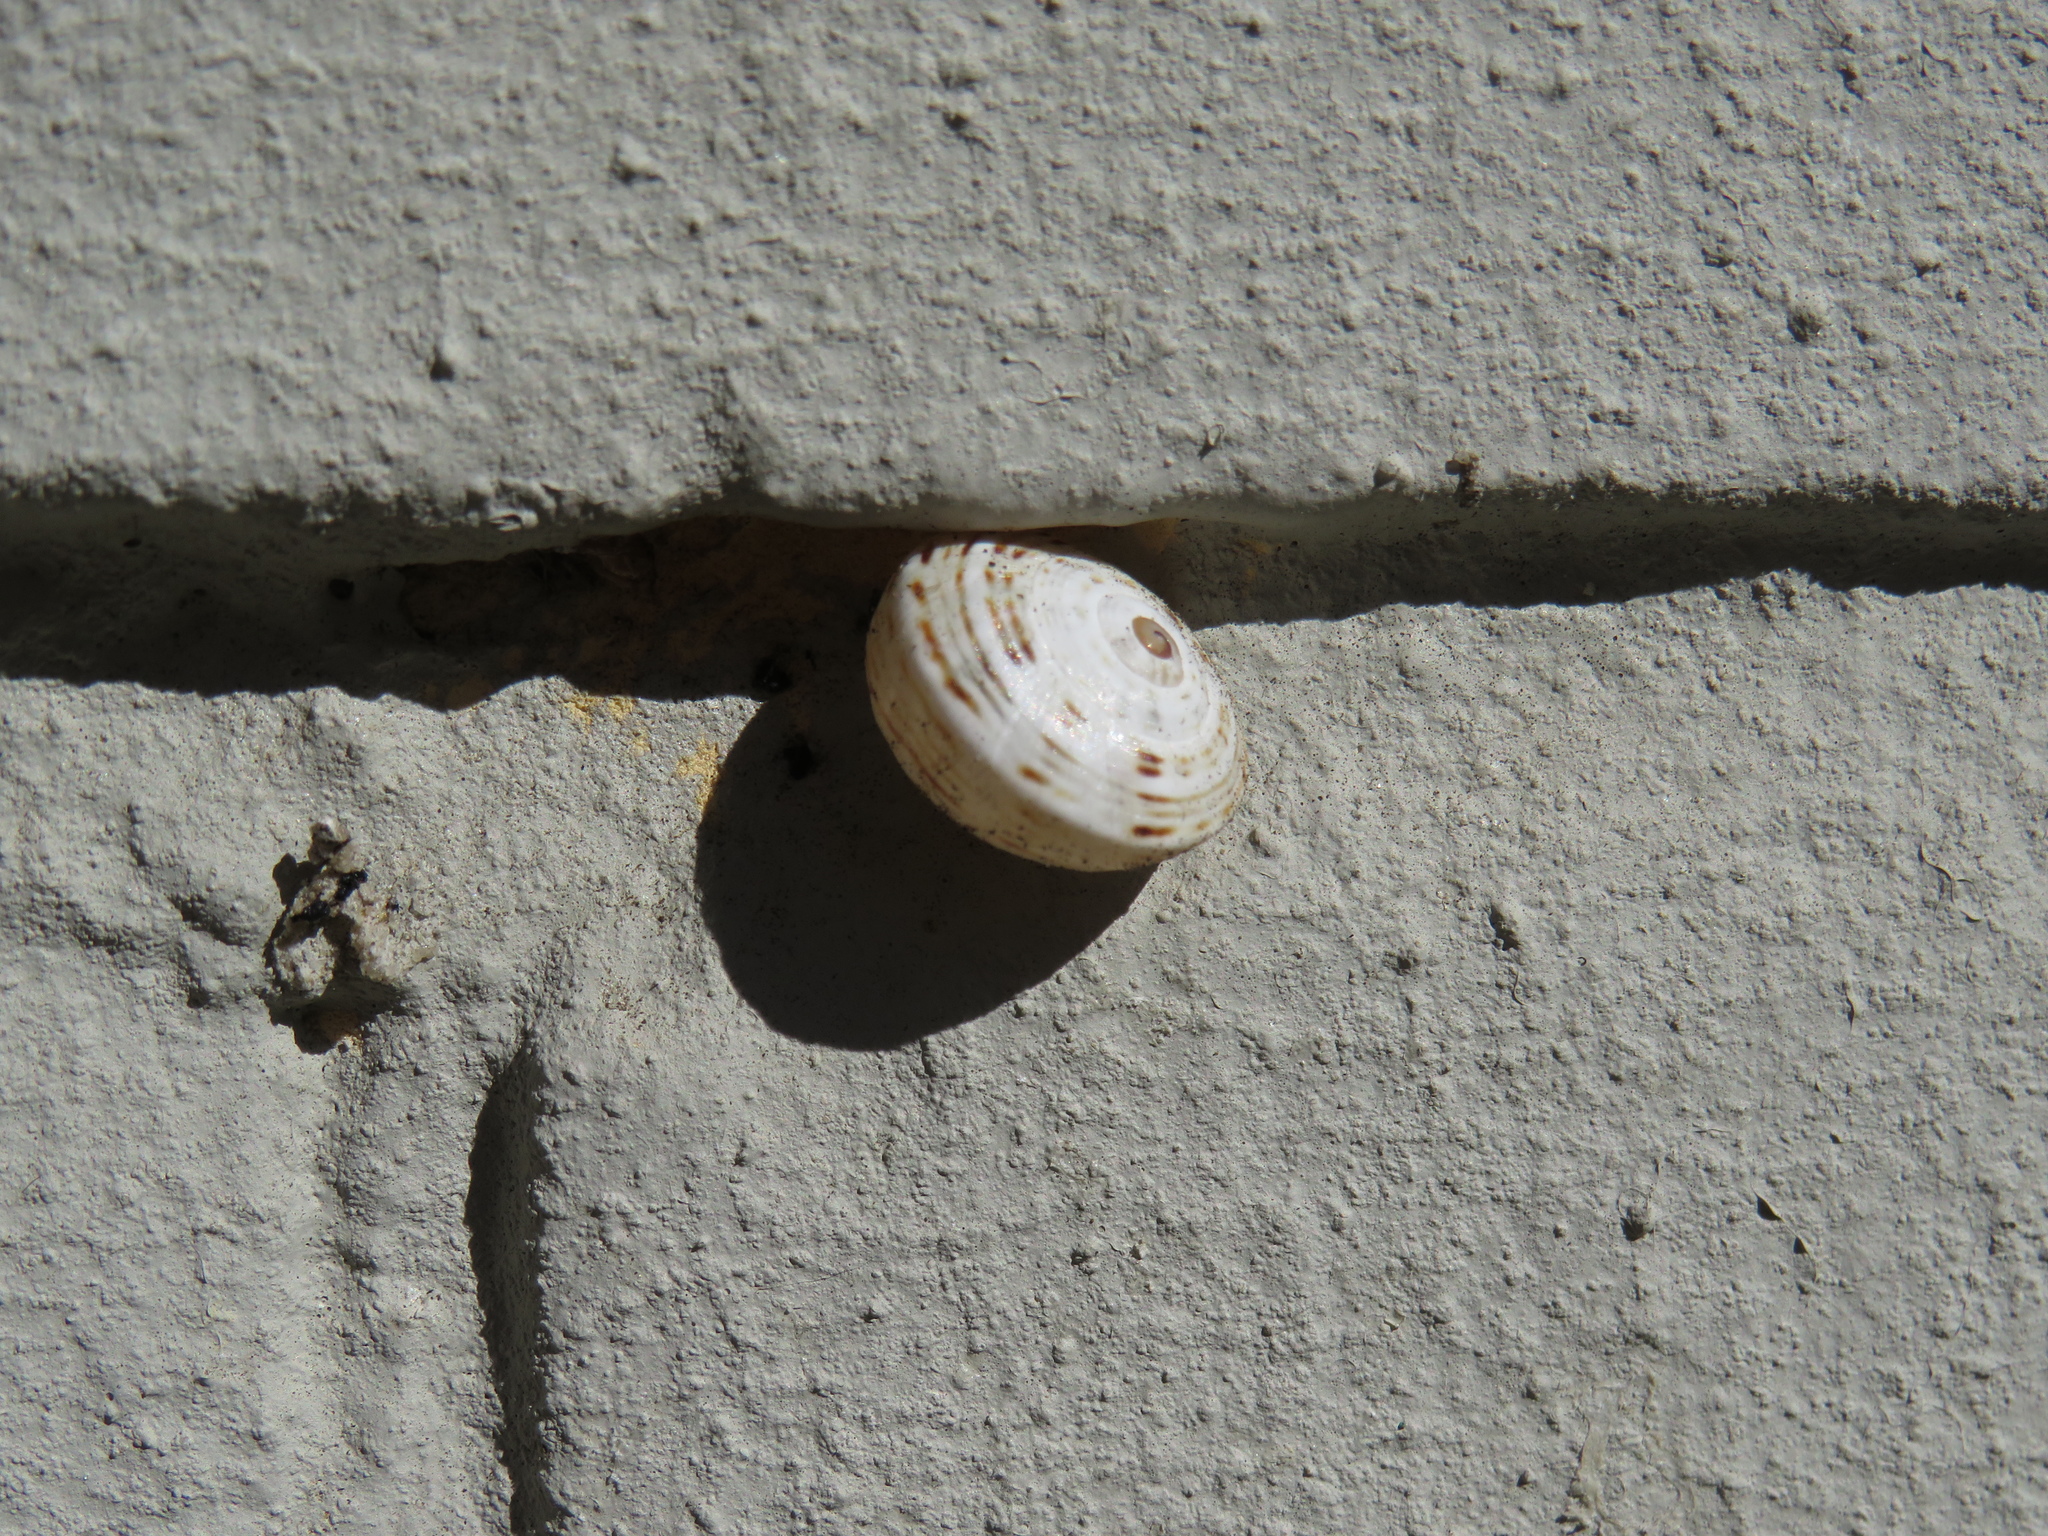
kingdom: Animalia
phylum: Mollusca
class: Gastropoda
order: Stylommatophora
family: Helicidae
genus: Theba
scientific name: Theba pisana
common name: White snail
